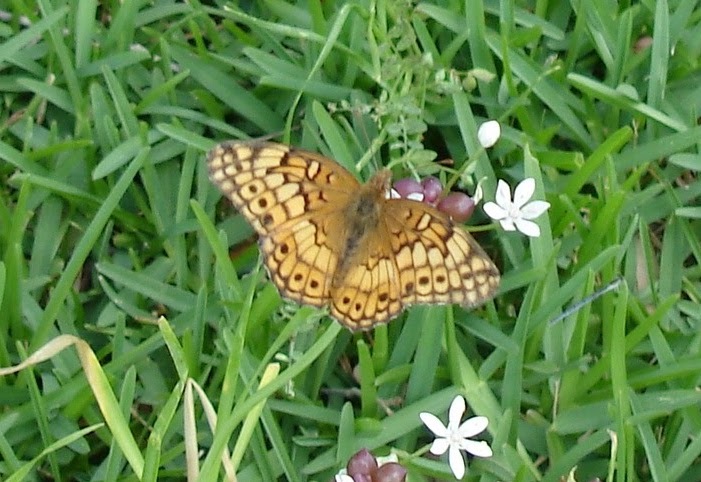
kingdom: Animalia
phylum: Arthropoda
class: Insecta
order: Lepidoptera
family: Nymphalidae
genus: Euptoieta
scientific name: Euptoieta claudia
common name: Variegated fritillary
